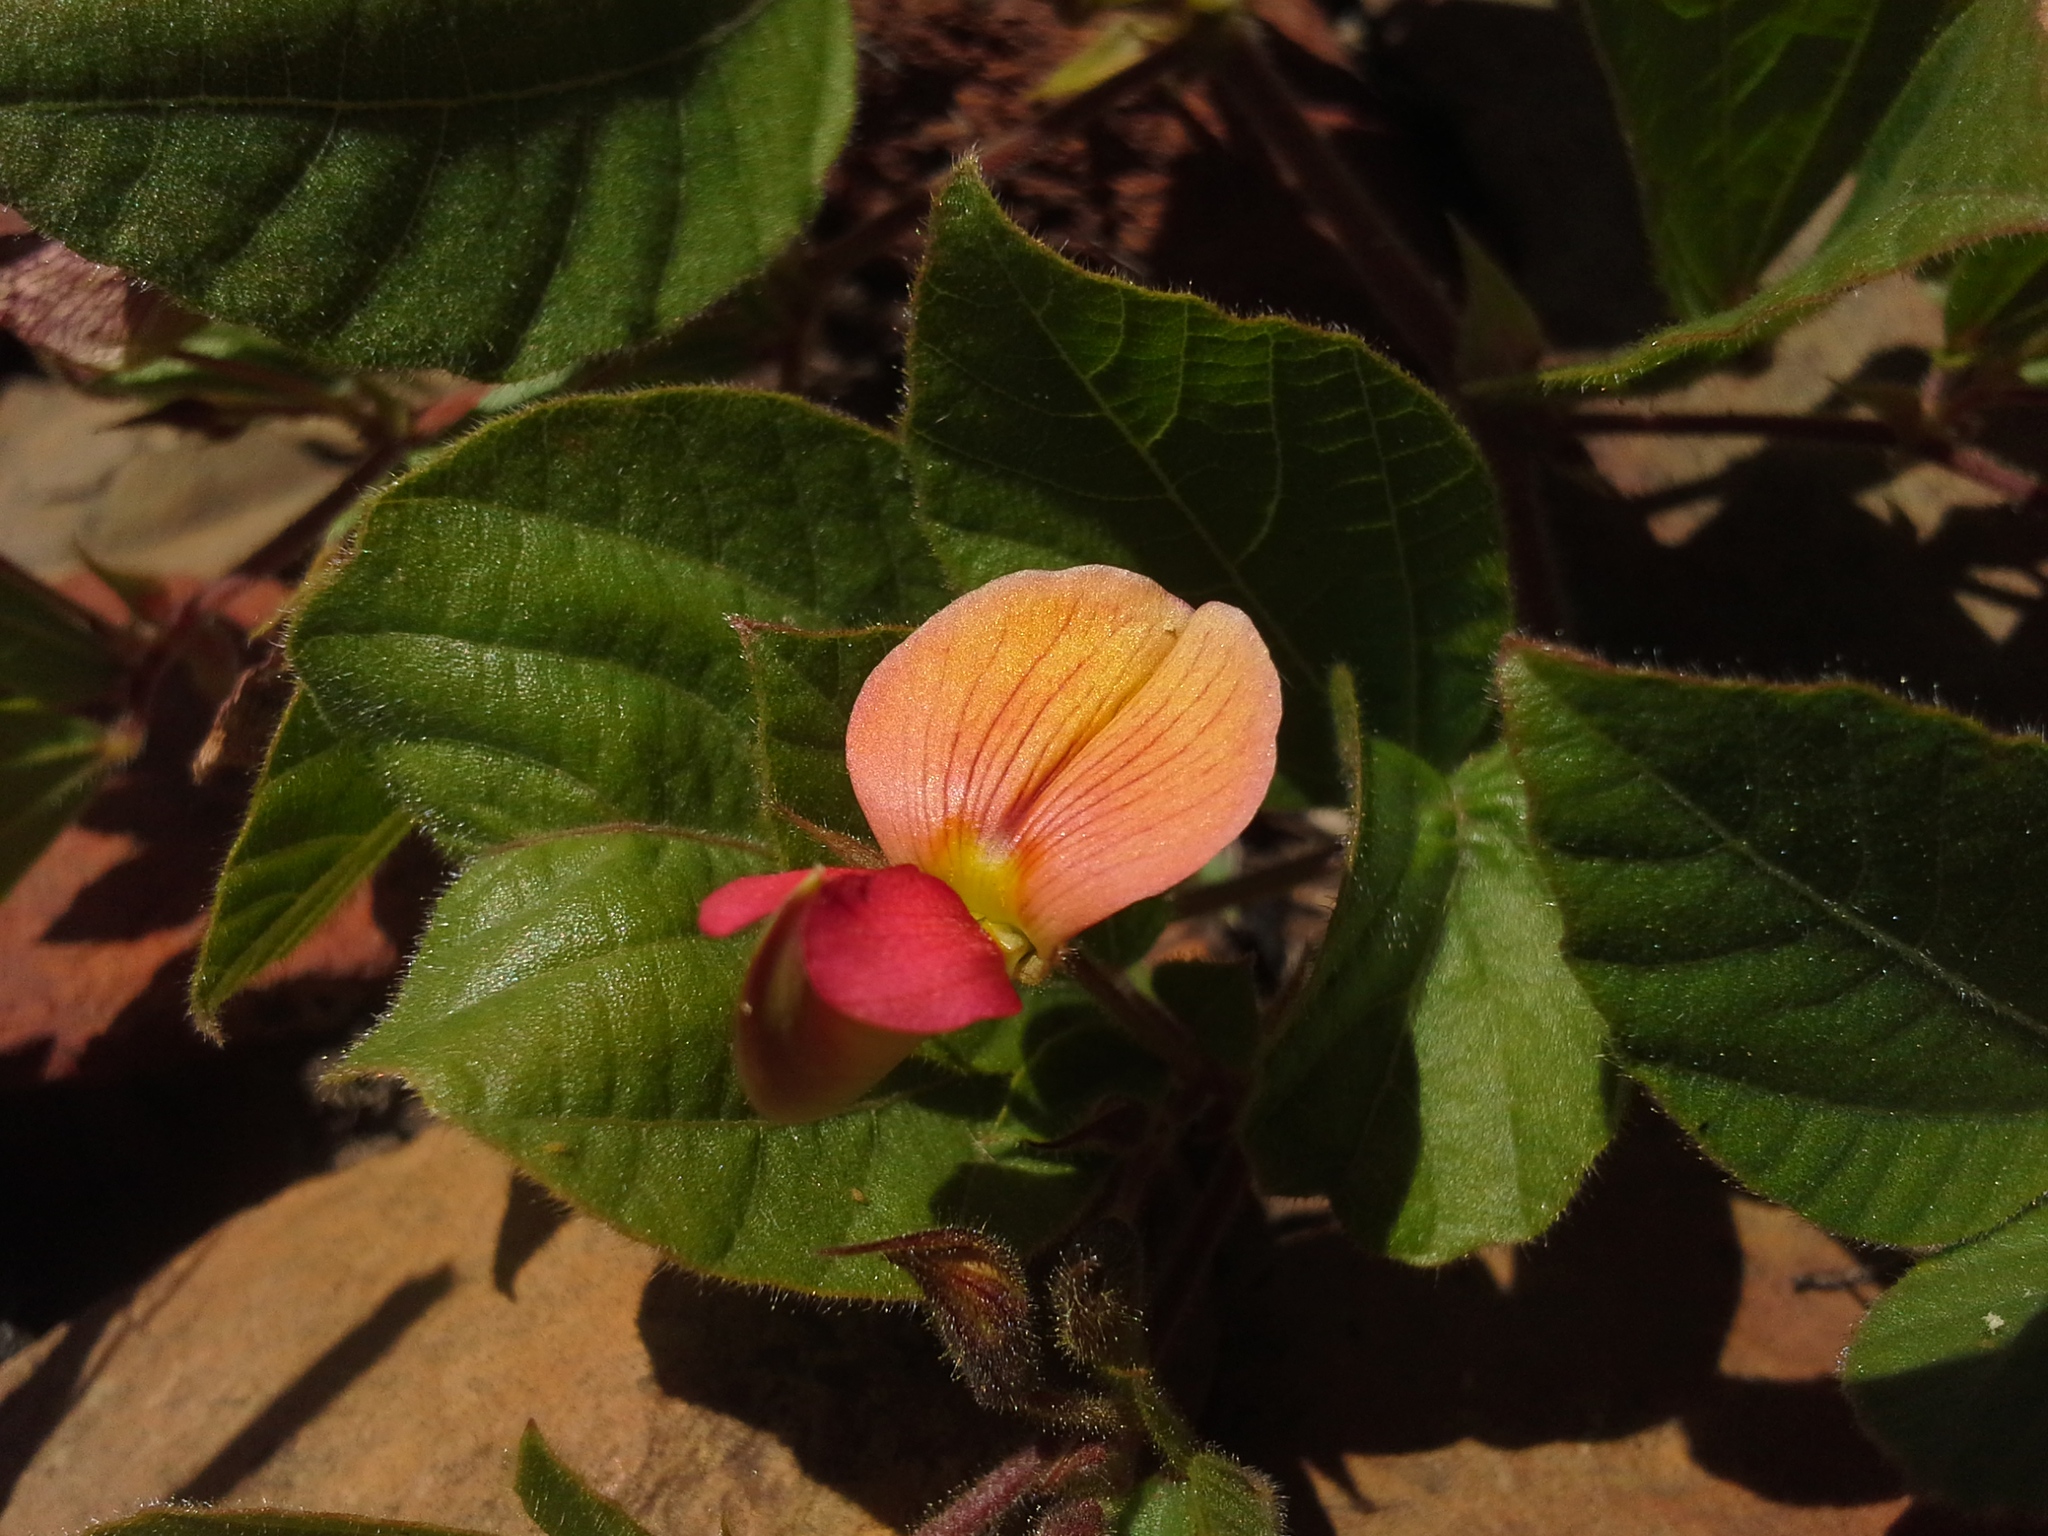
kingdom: Plantae
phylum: Tracheophyta
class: Magnoliopsida
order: Fabales
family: Fabaceae
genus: Rhynchosia
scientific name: Rhynchosia monophylla
